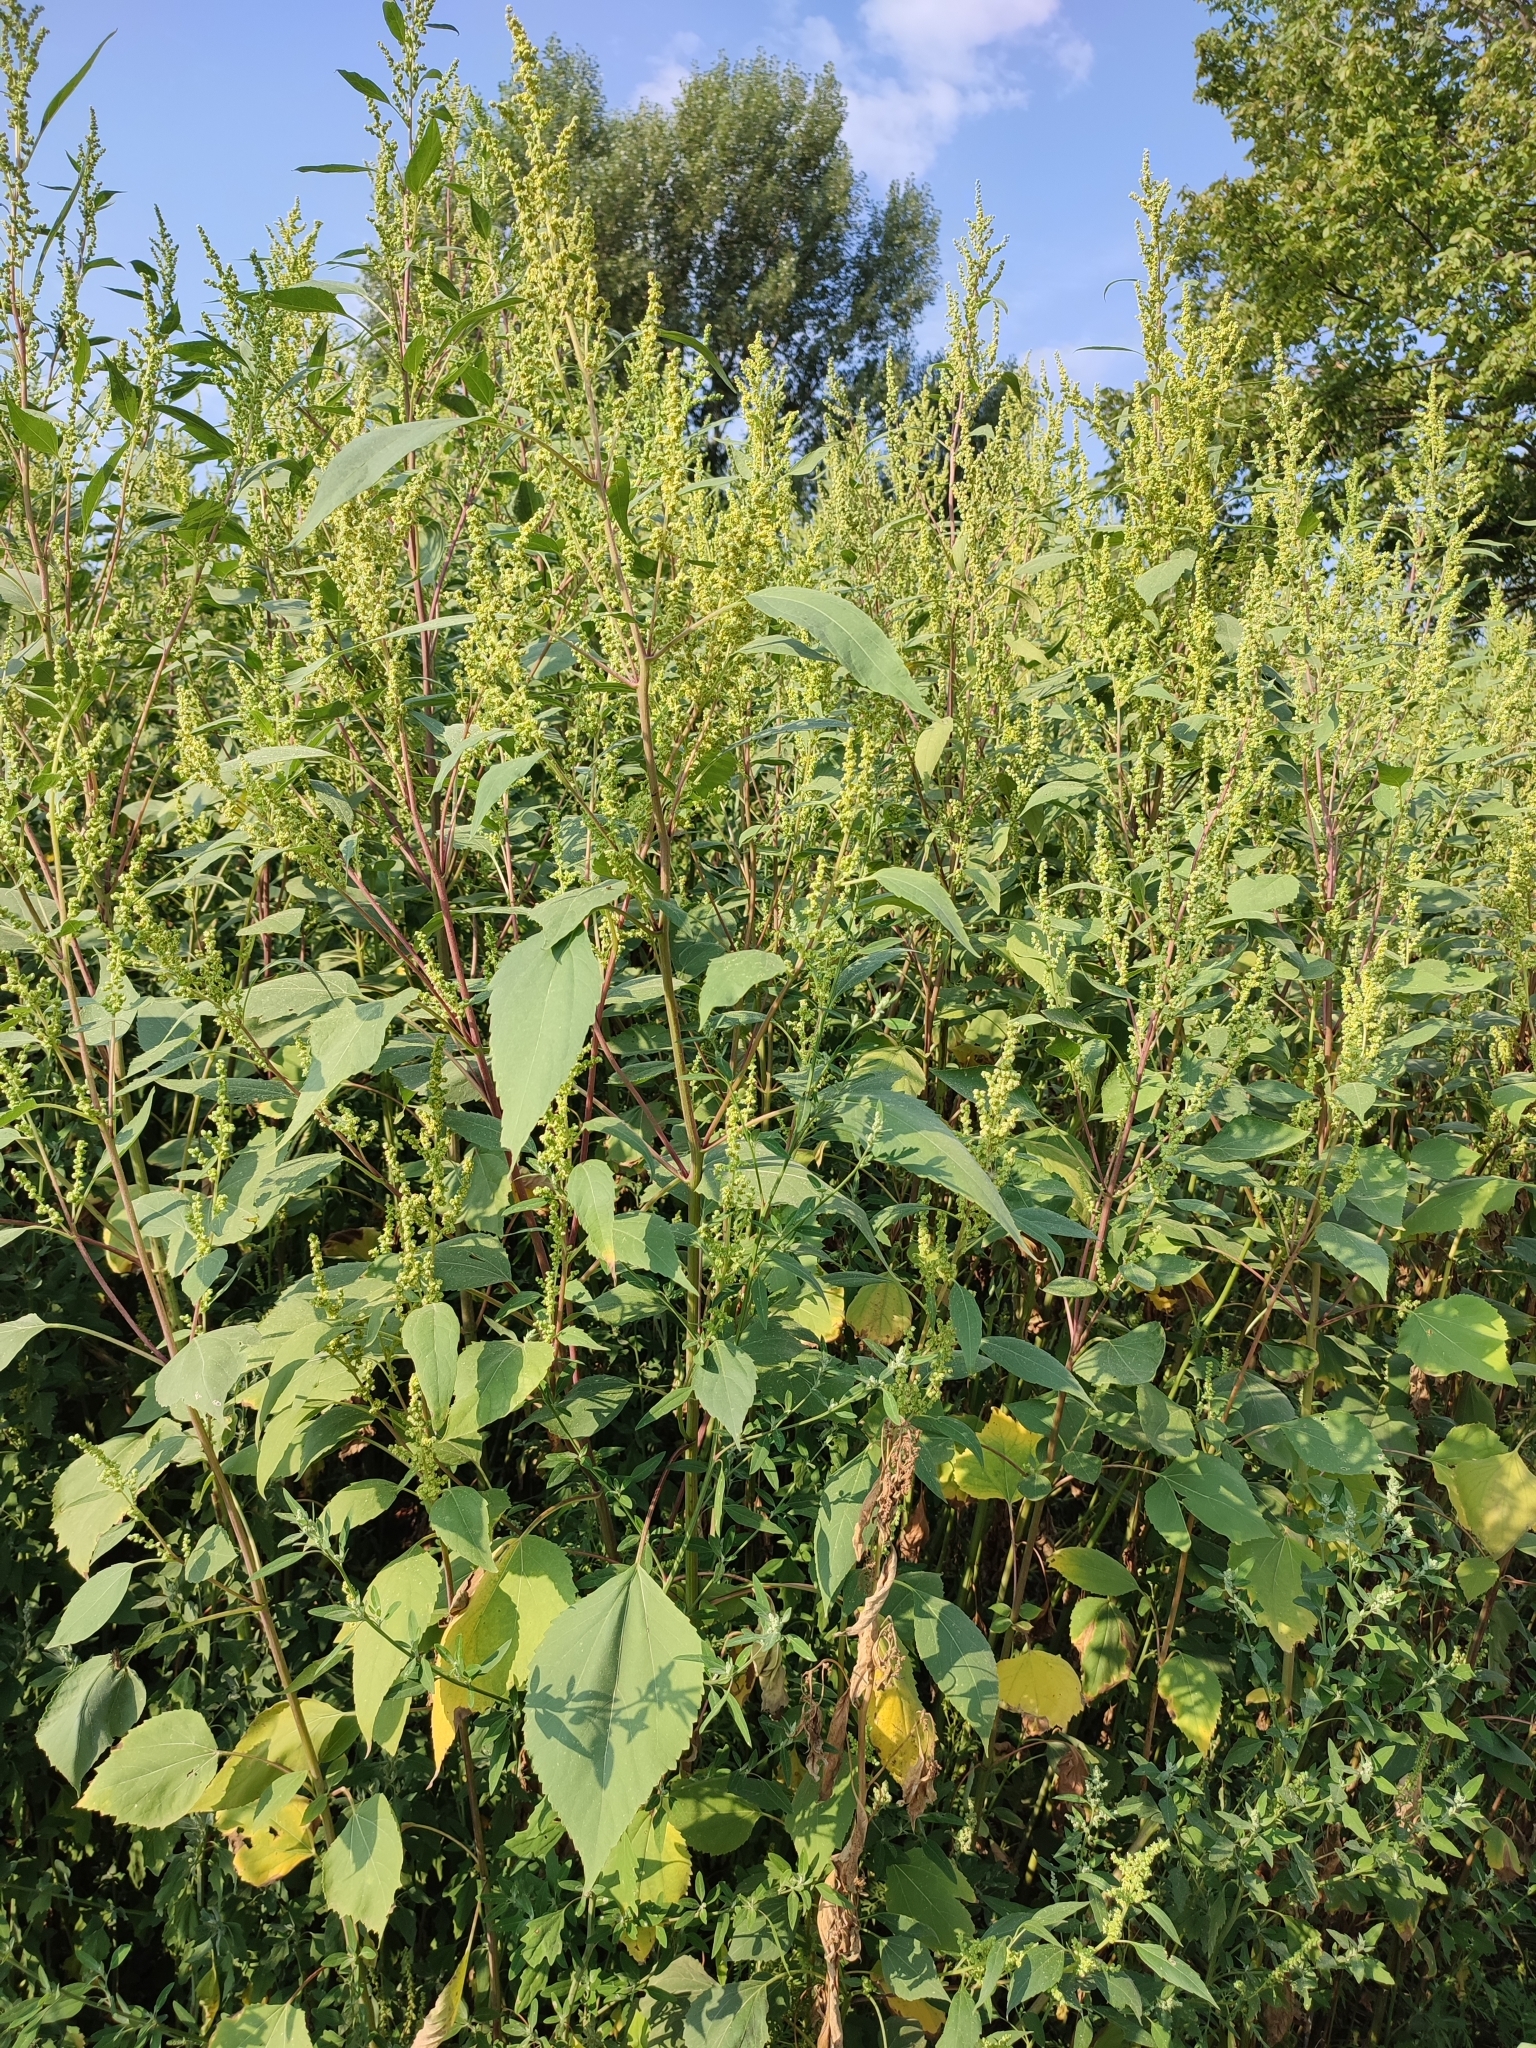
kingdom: Plantae
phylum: Tracheophyta
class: Magnoliopsida
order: Asterales
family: Asteraceae
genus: Cyclachaena
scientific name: Cyclachaena xanthiifolia
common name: Giant sumpweed
